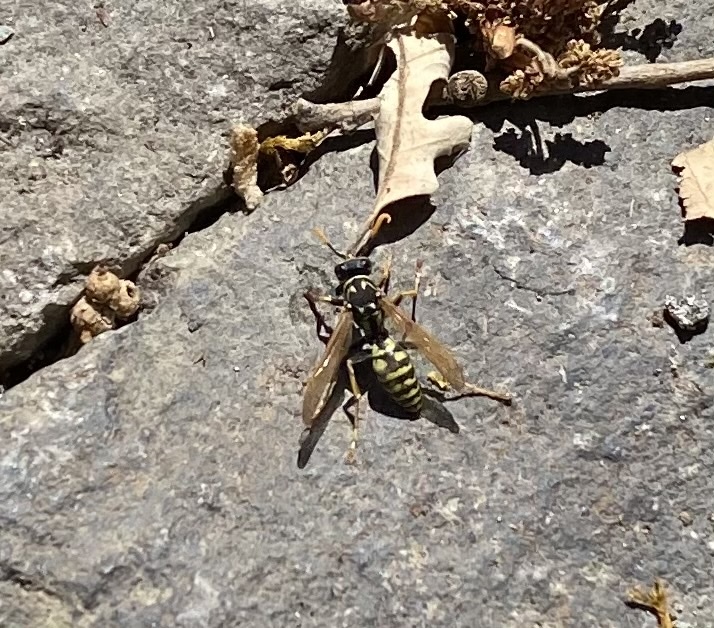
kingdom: Animalia
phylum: Arthropoda
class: Insecta
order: Hymenoptera
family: Eumenidae
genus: Polistes
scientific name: Polistes dominula
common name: Paper wasp
